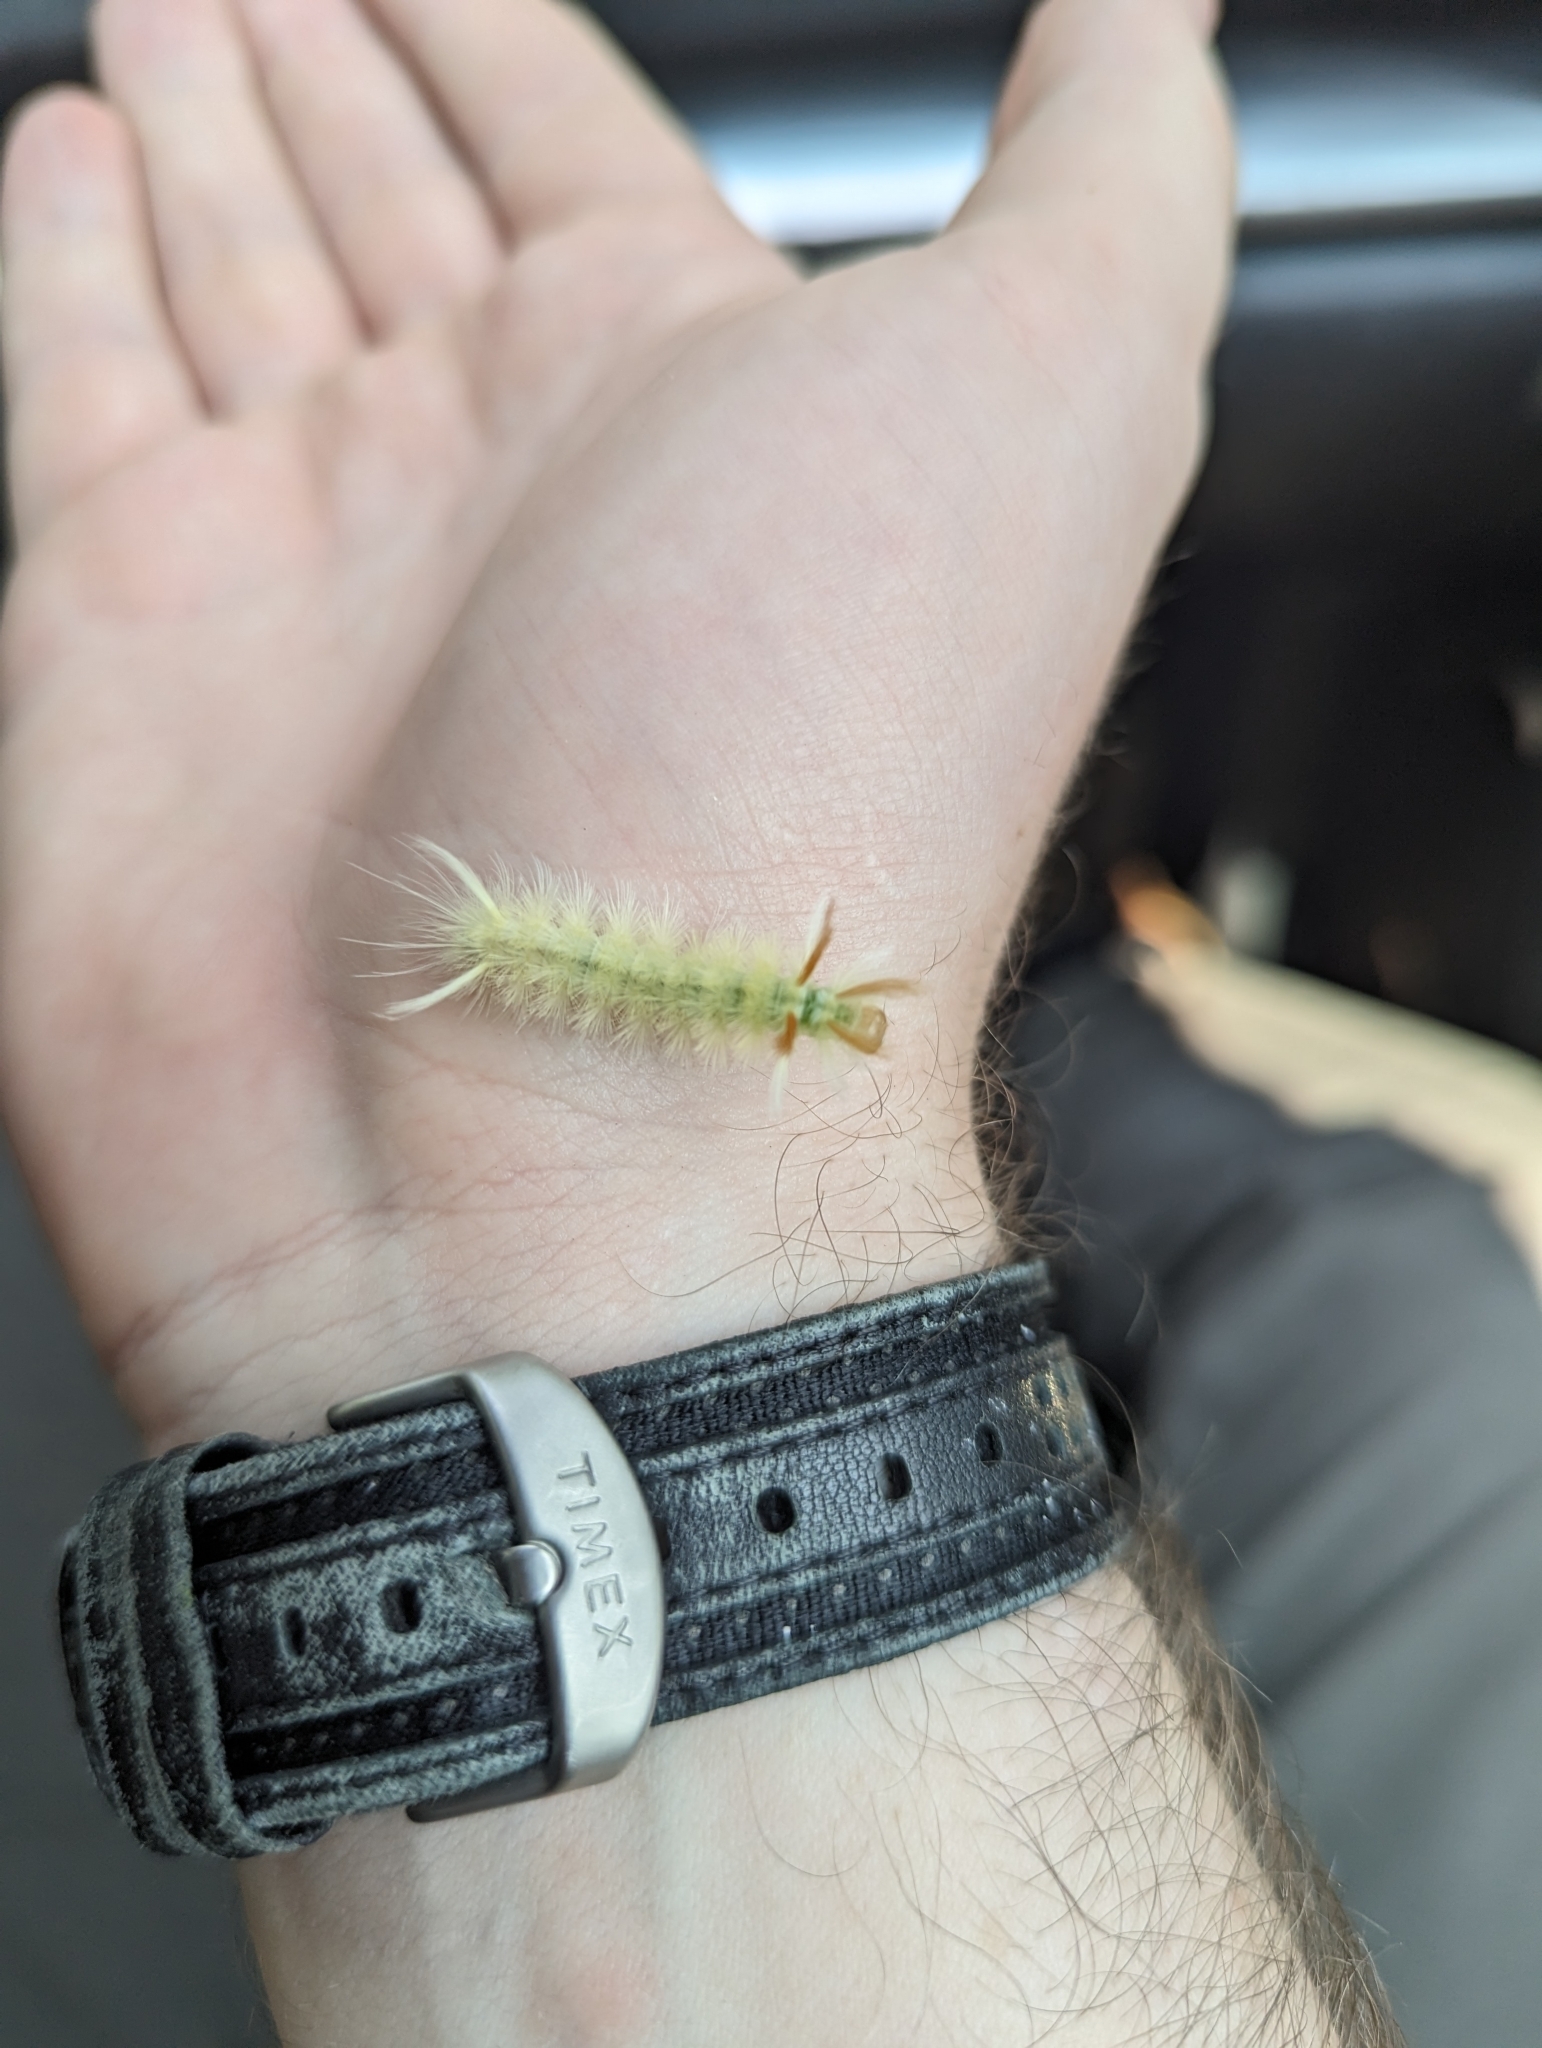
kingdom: Animalia
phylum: Arthropoda
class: Insecta
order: Lepidoptera
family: Erebidae
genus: Halysidota
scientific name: Halysidota harrisii
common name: Sycamore tussock moth
